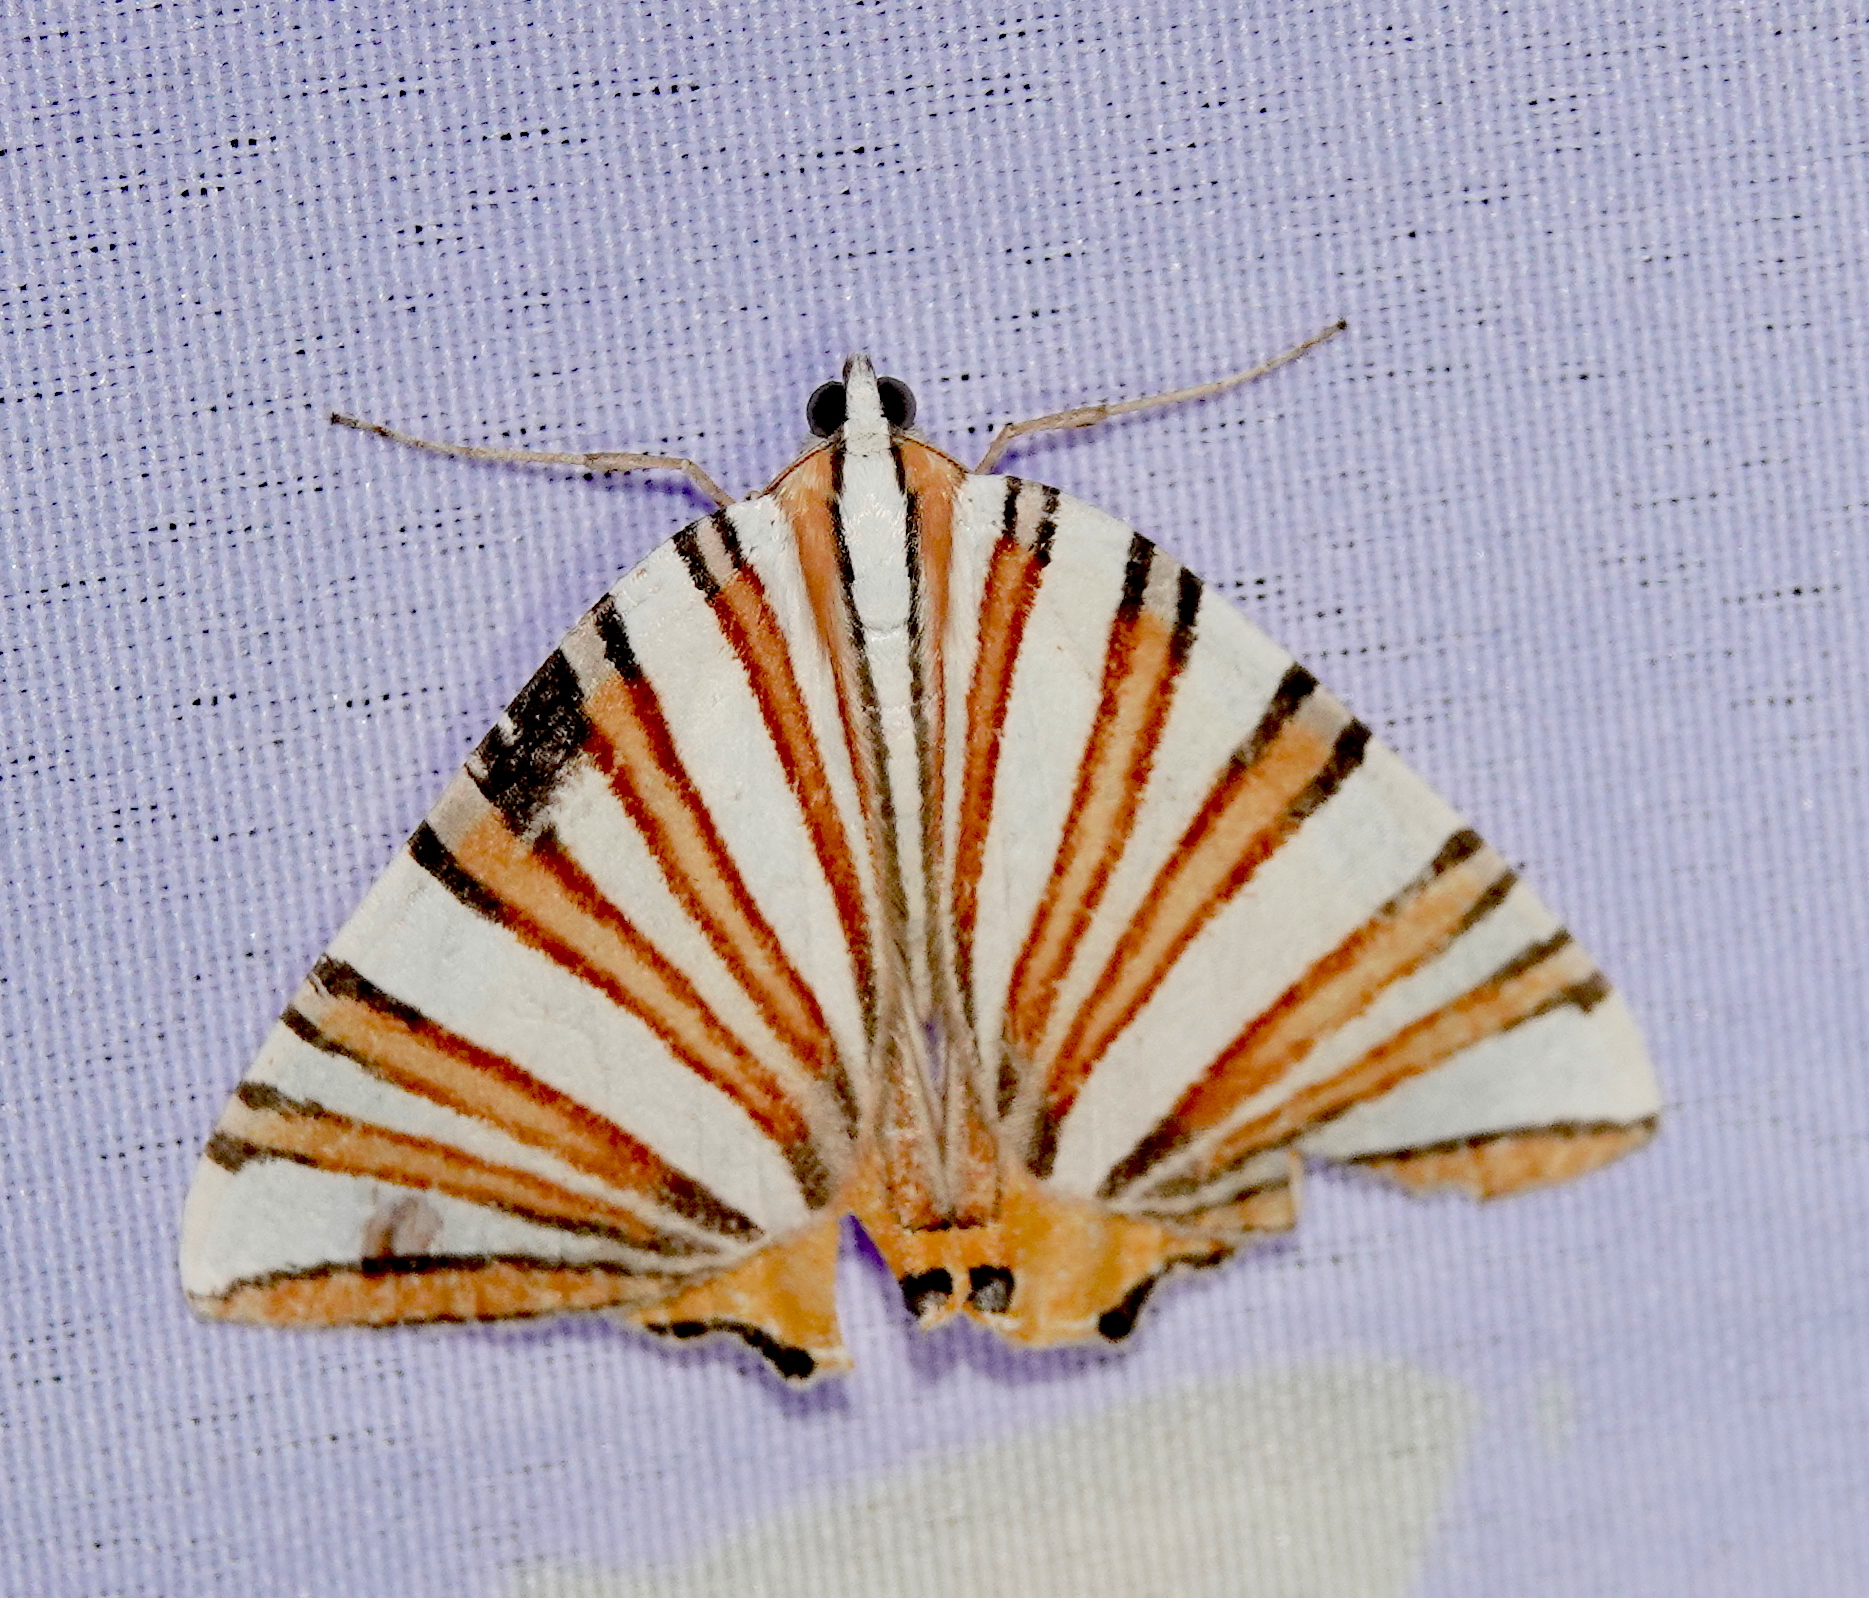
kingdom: Animalia
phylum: Arthropoda
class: Insecta
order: Lepidoptera
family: Geometridae
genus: Pityeja
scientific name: Pityeja histrionaria
